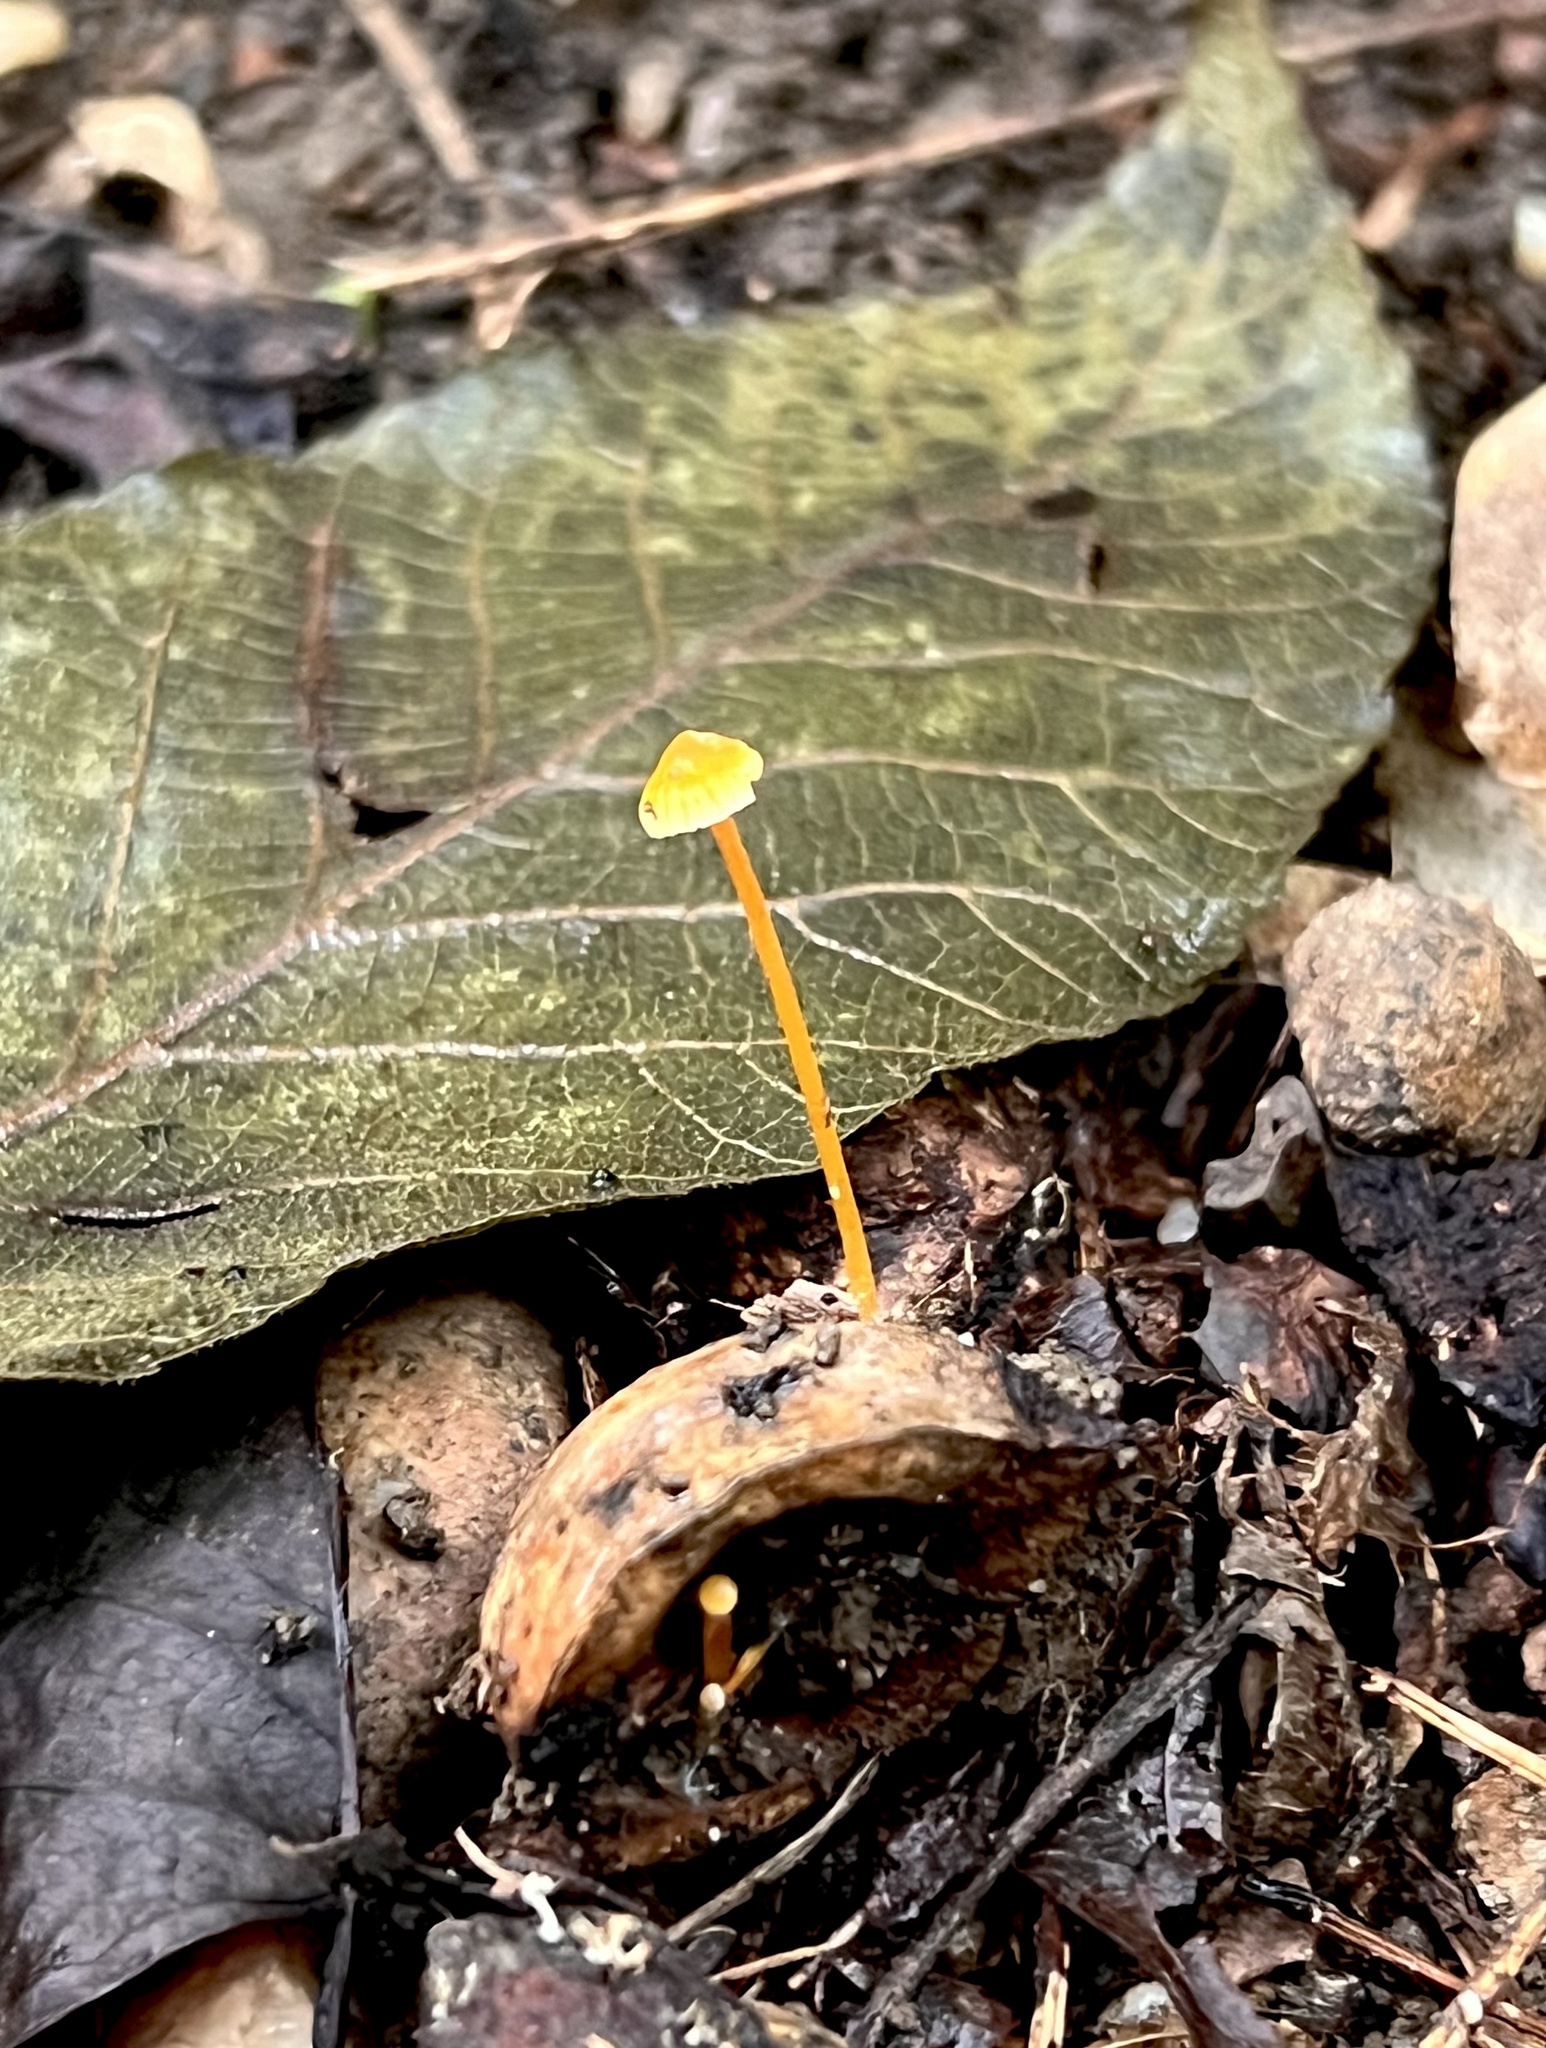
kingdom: Fungi
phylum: Basidiomycota
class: Agaricomycetes
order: Agaricales
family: Mycenaceae
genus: Mycena
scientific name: Mycena crocea
